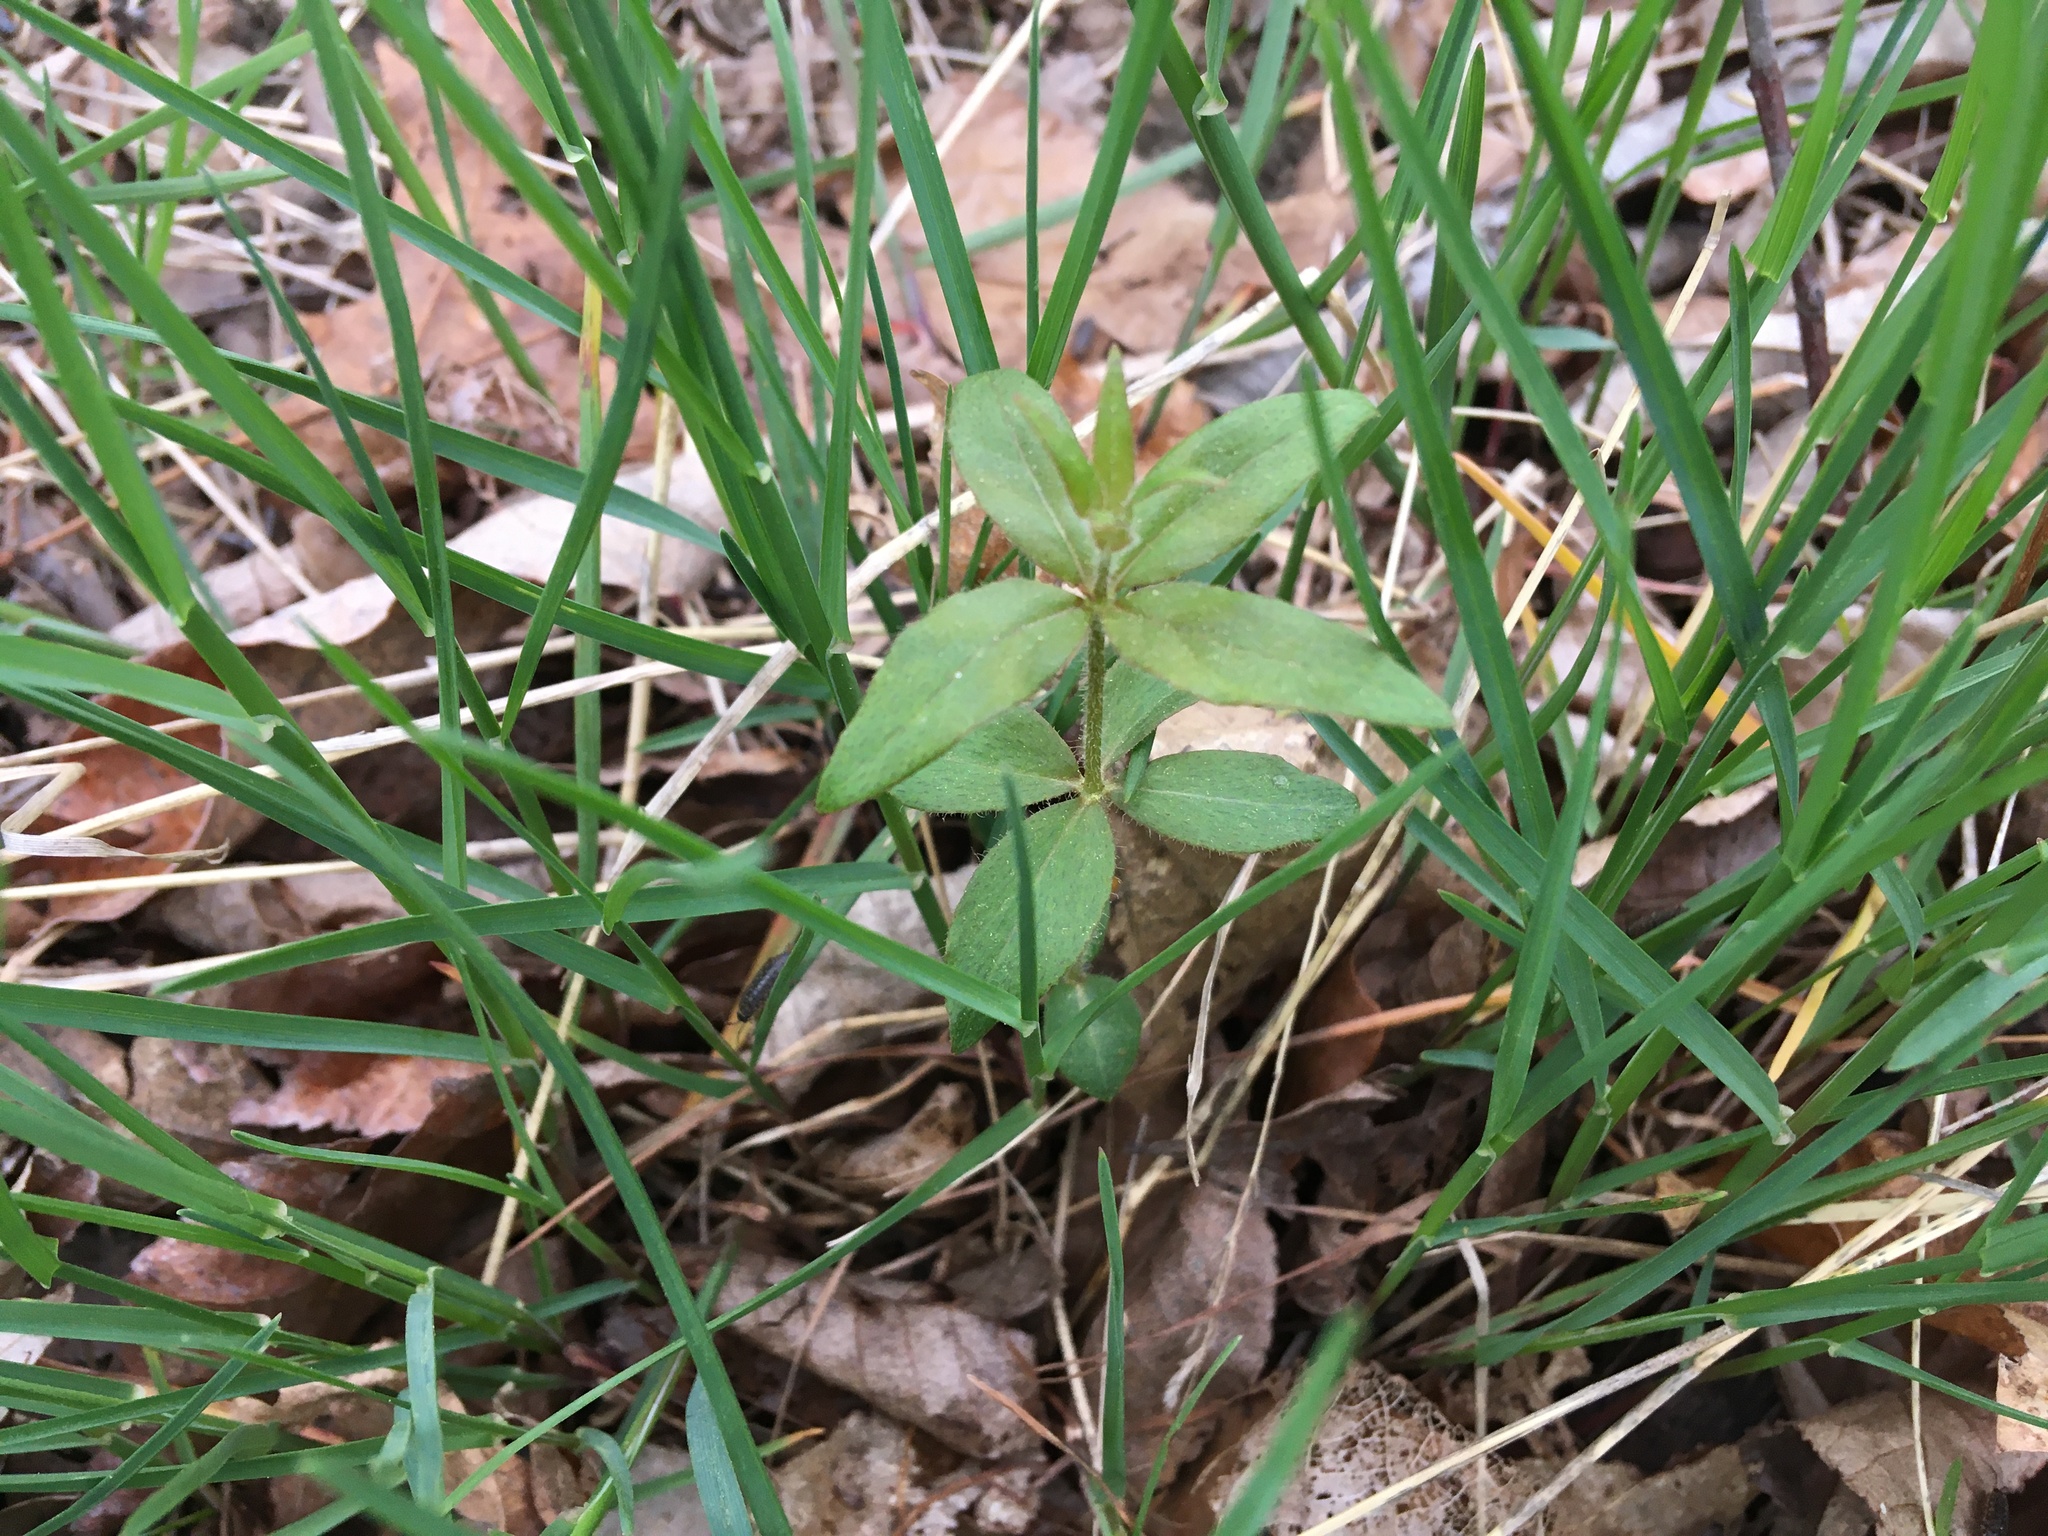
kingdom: Plantae
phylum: Tracheophyta
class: Magnoliopsida
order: Ericales
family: Primulaceae
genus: Lysimachia
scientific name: Lysimachia quadrifolia
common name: Whorled loosestrife
